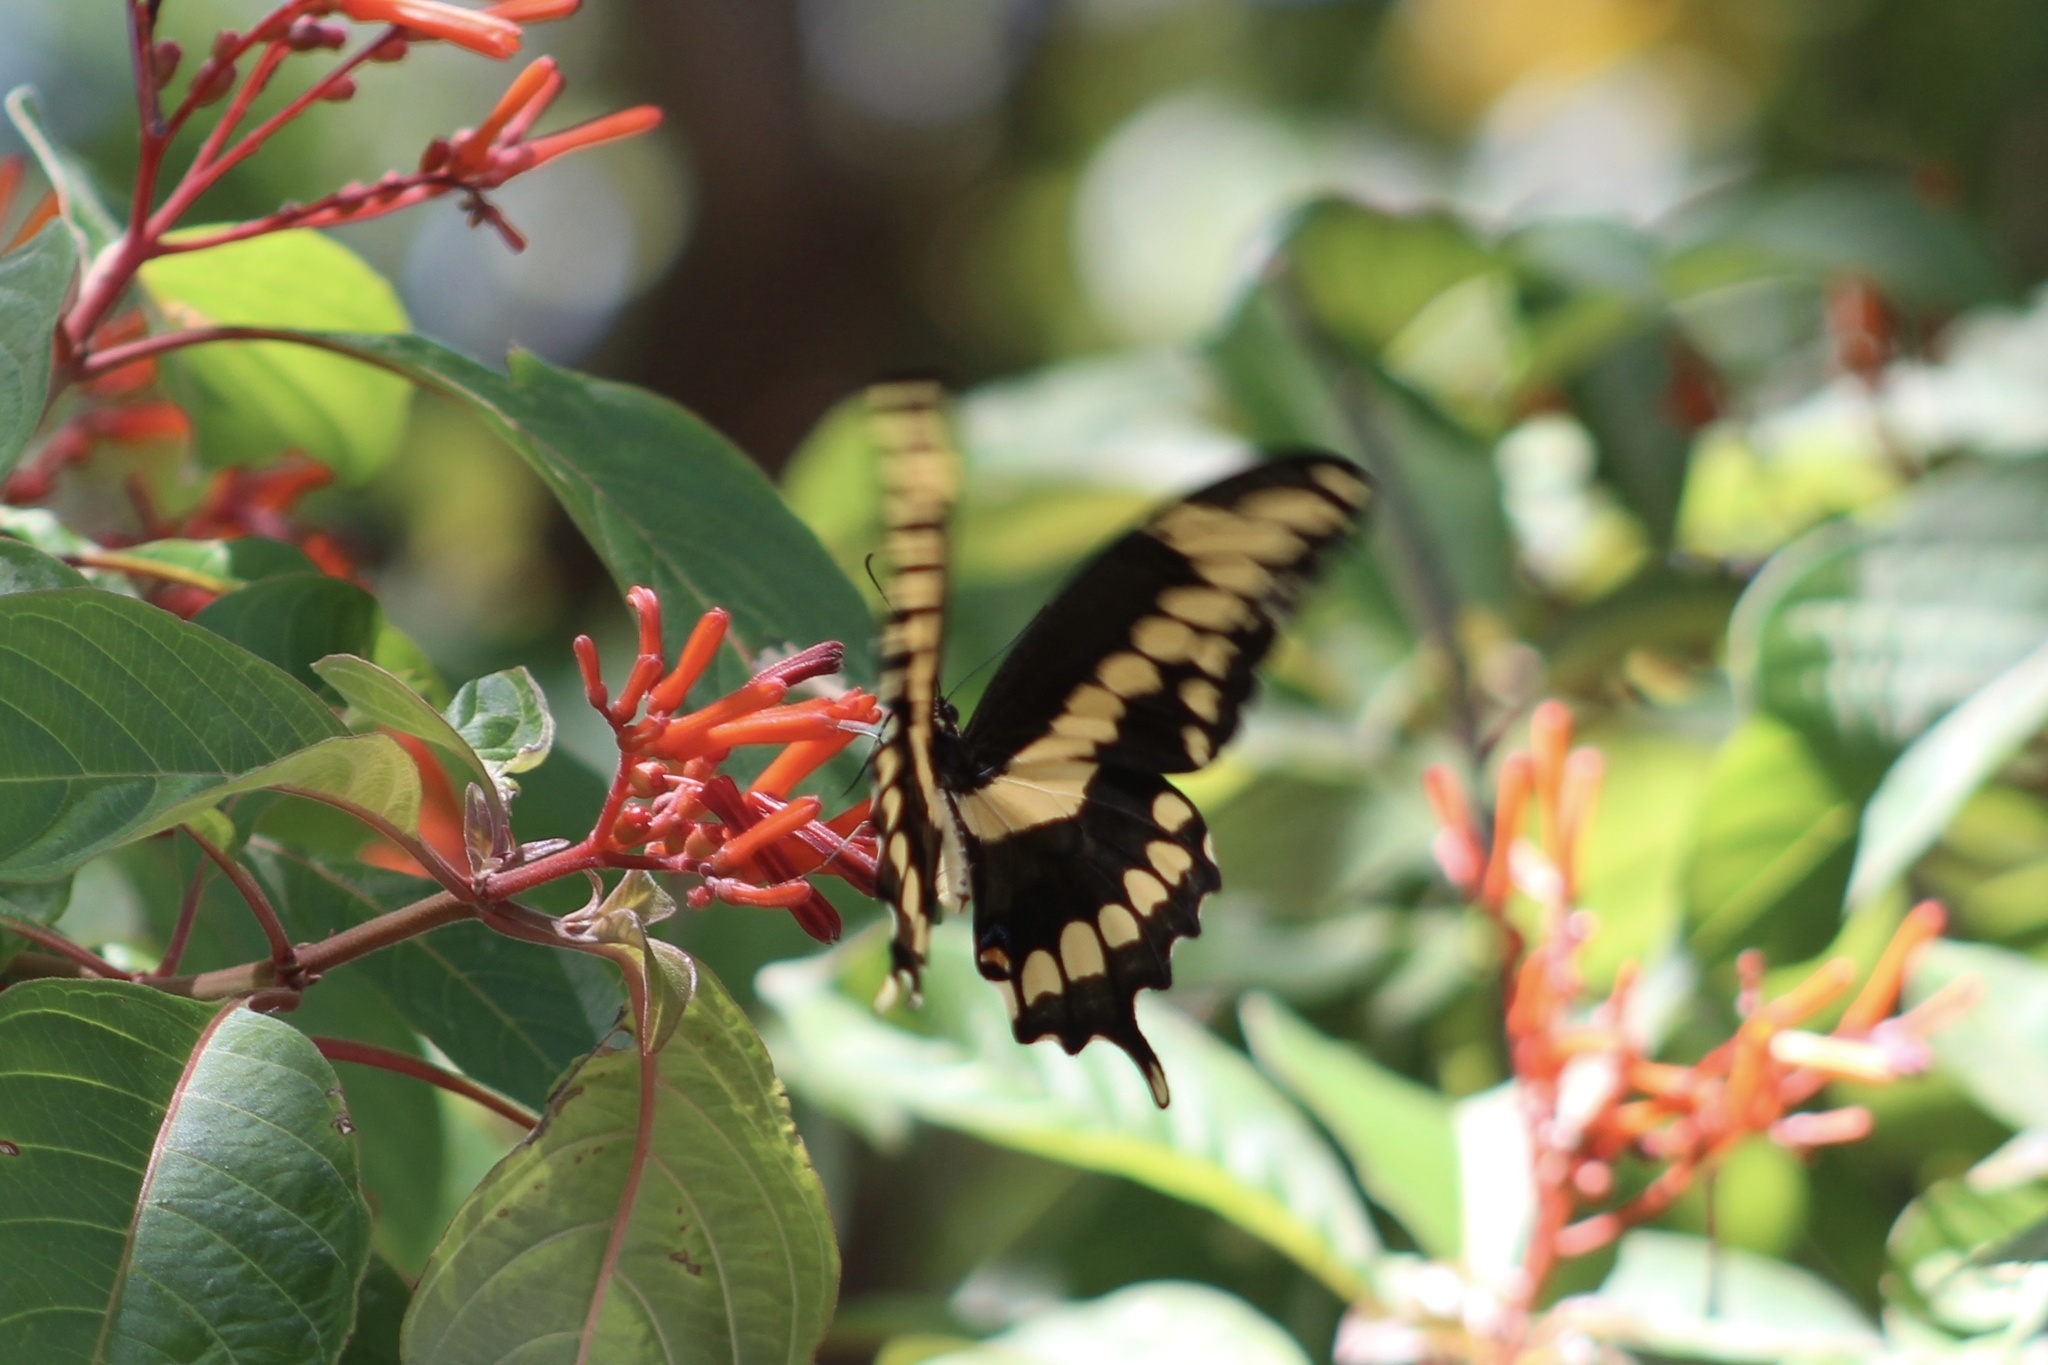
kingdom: Animalia
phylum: Arthropoda
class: Insecta
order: Lepidoptera
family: Papilionidae
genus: Papilio
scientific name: Papilio cresphontes
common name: Giant swallowtail
